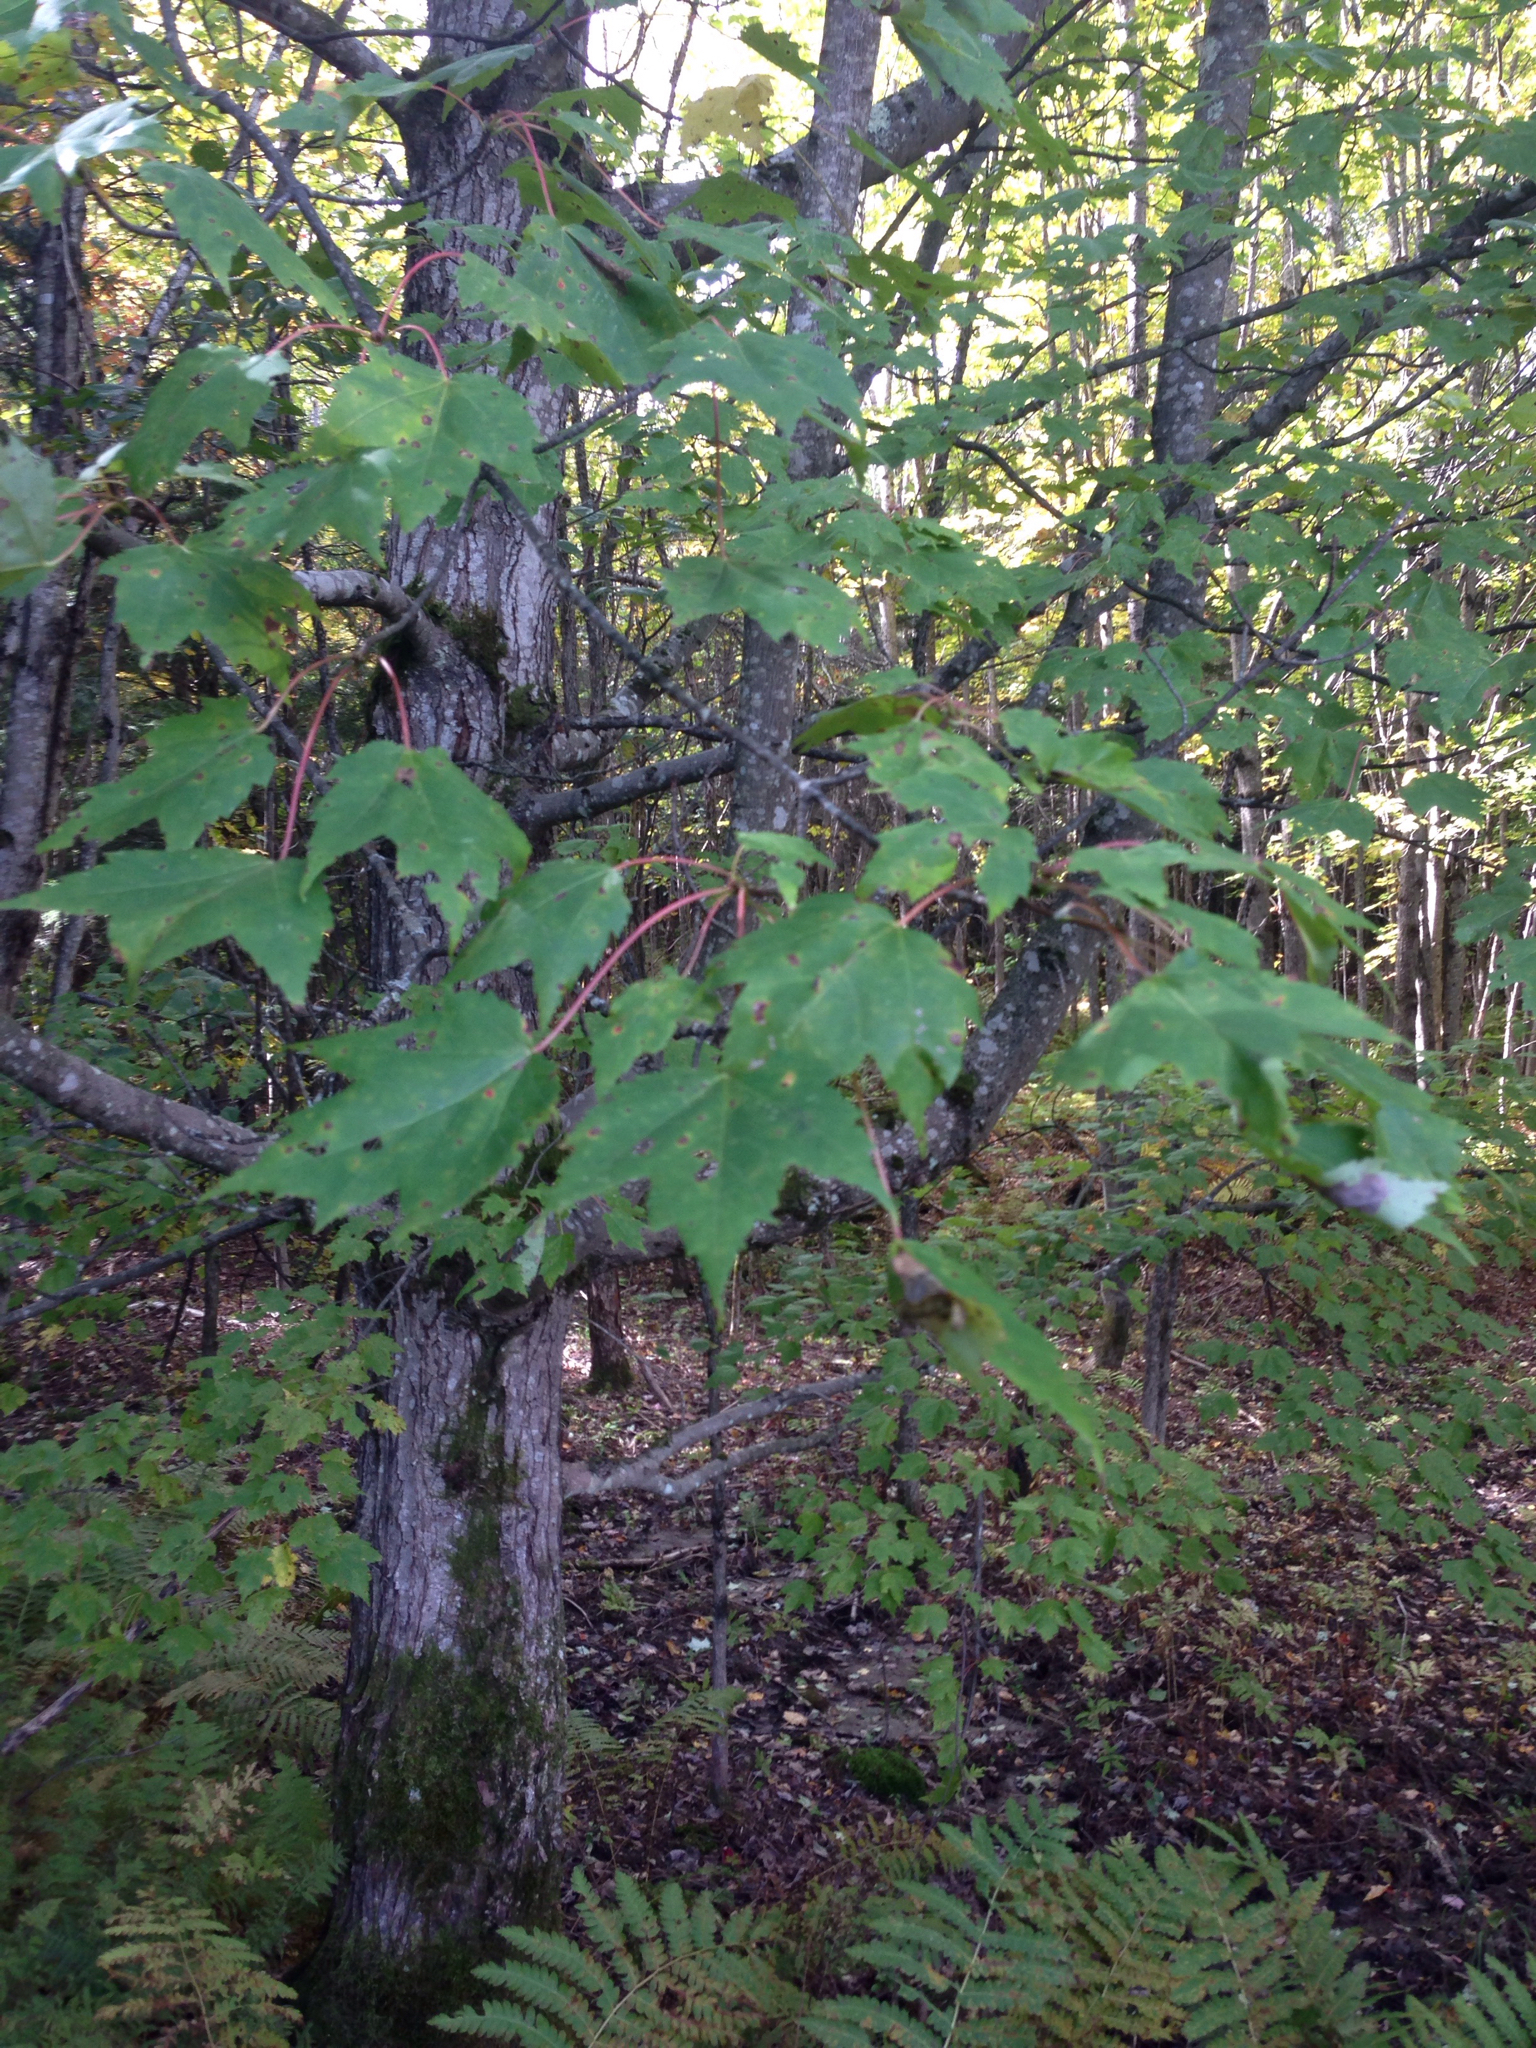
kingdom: Plantae
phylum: Tracheophyta
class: Magnoliopsida
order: Sapindales
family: Sapindaceae
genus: Acer
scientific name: Acer rubrum
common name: Red maple
